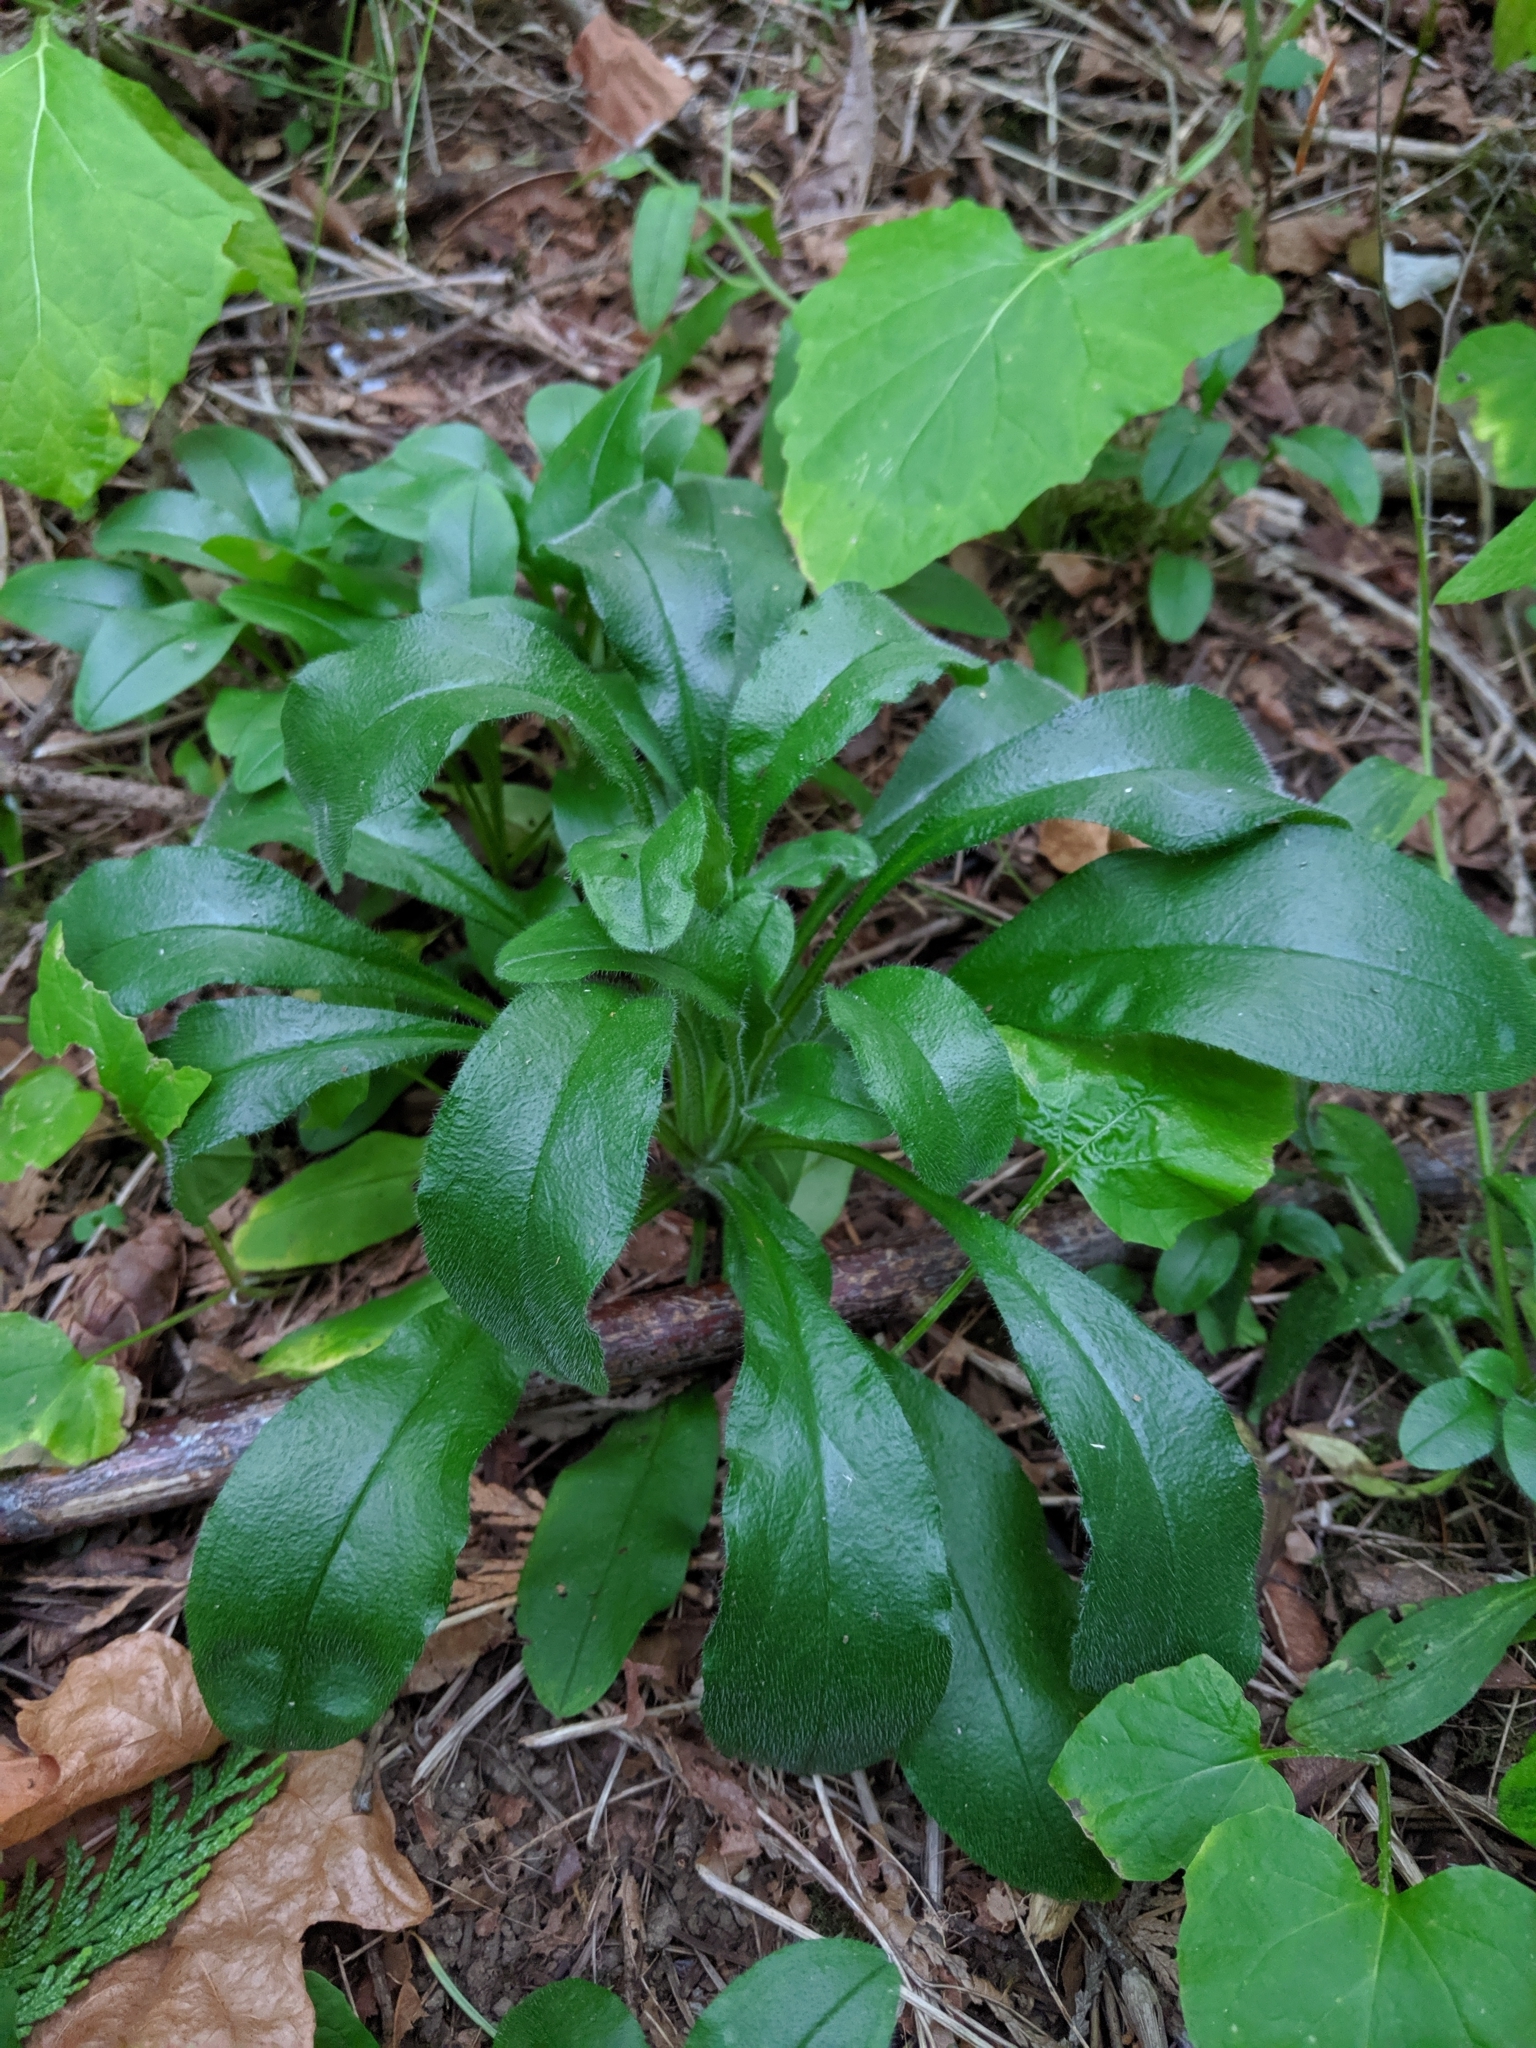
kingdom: Plantae
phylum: Tracheophyta
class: Magnoliopsida
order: Boraginales
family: Boraginaceae
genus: Myosotis
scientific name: Myosotis sylvatica
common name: Wood forget-me-not
